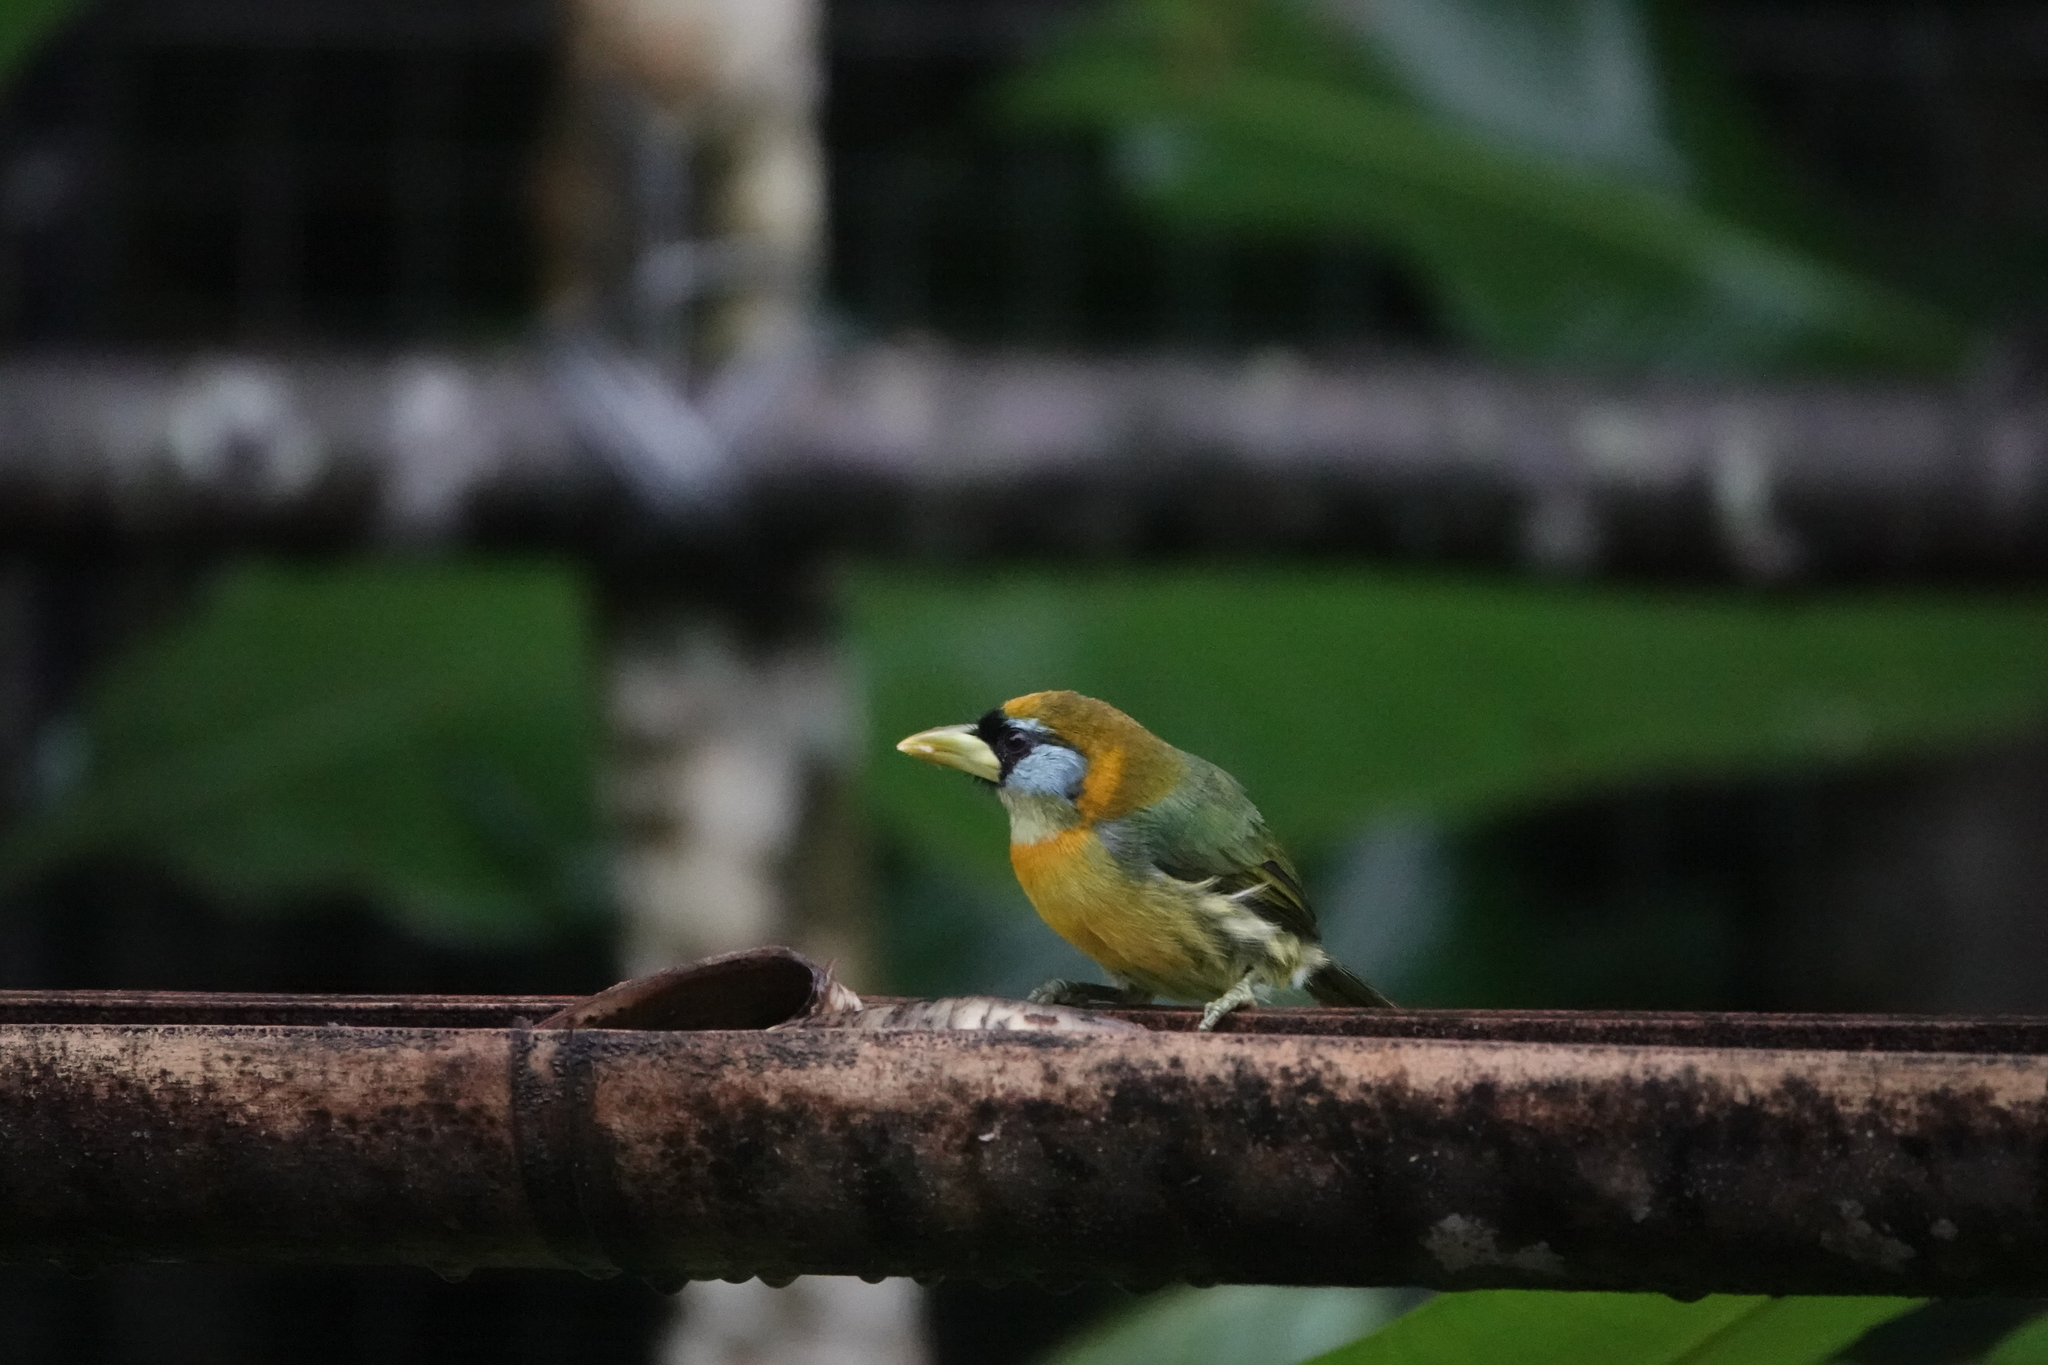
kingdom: Animalia
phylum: Chordata
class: Aves
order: Piciformes
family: Capitonidae
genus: Eubucco
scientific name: Eubucco bourcierii
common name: Red-headed barbet
